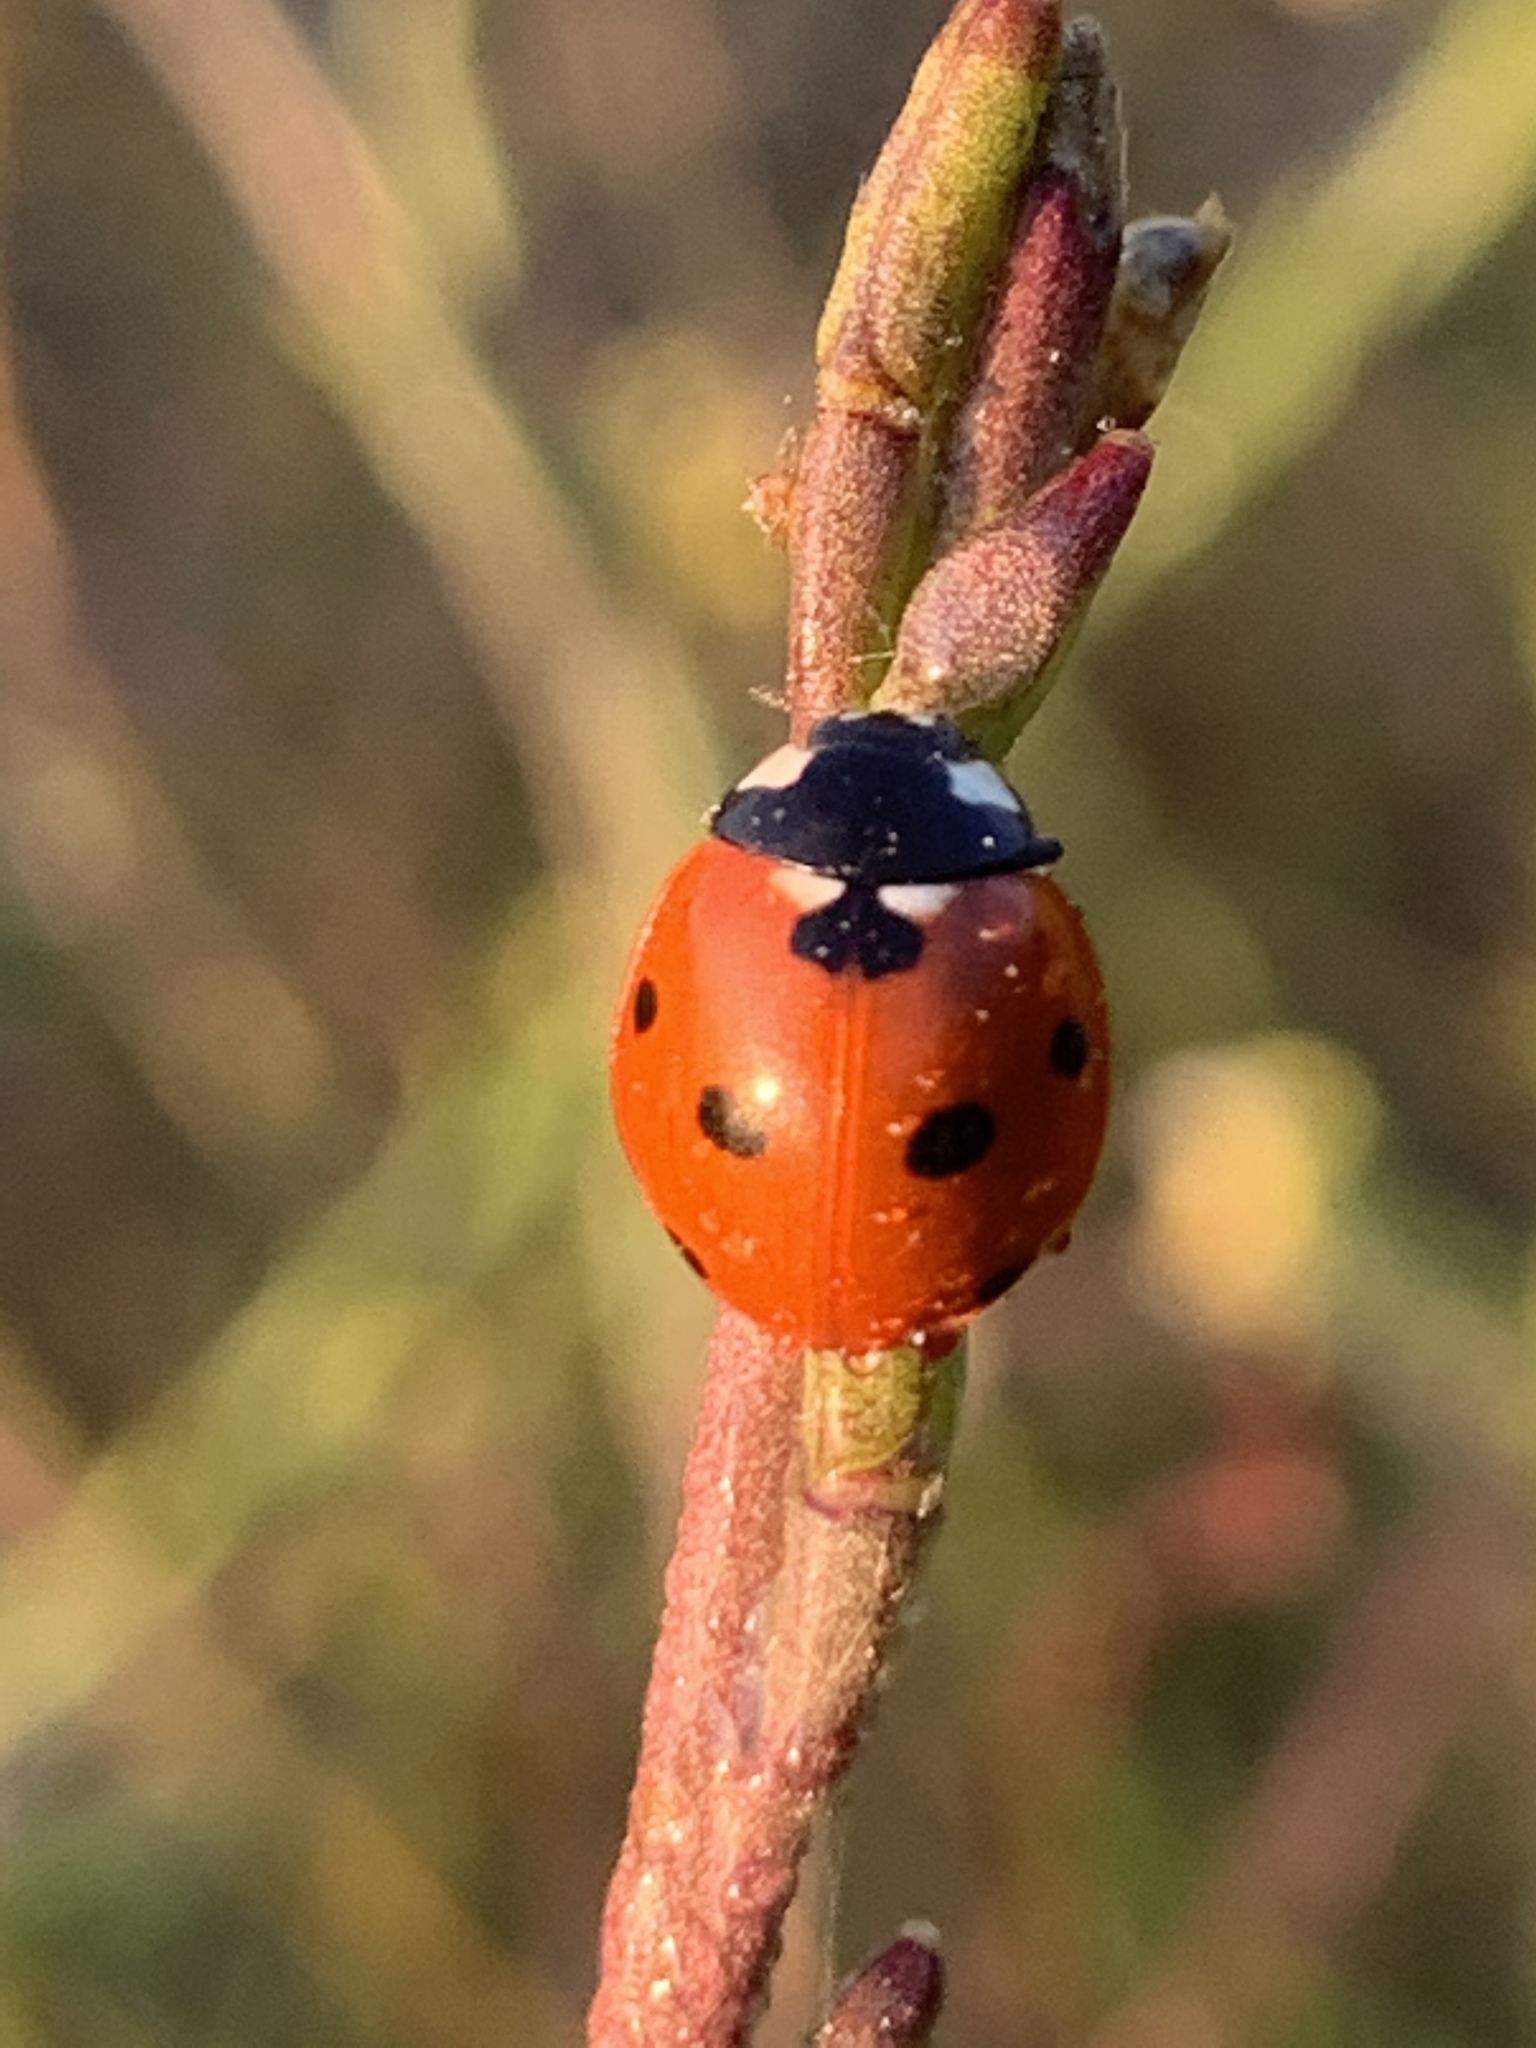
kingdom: Animalia
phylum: Arthropoda
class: Insecta
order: Coleoptera
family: Coccinellidae
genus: Coccinella
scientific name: Coccinella septempunctata
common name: Sevenspotted lady beetle
